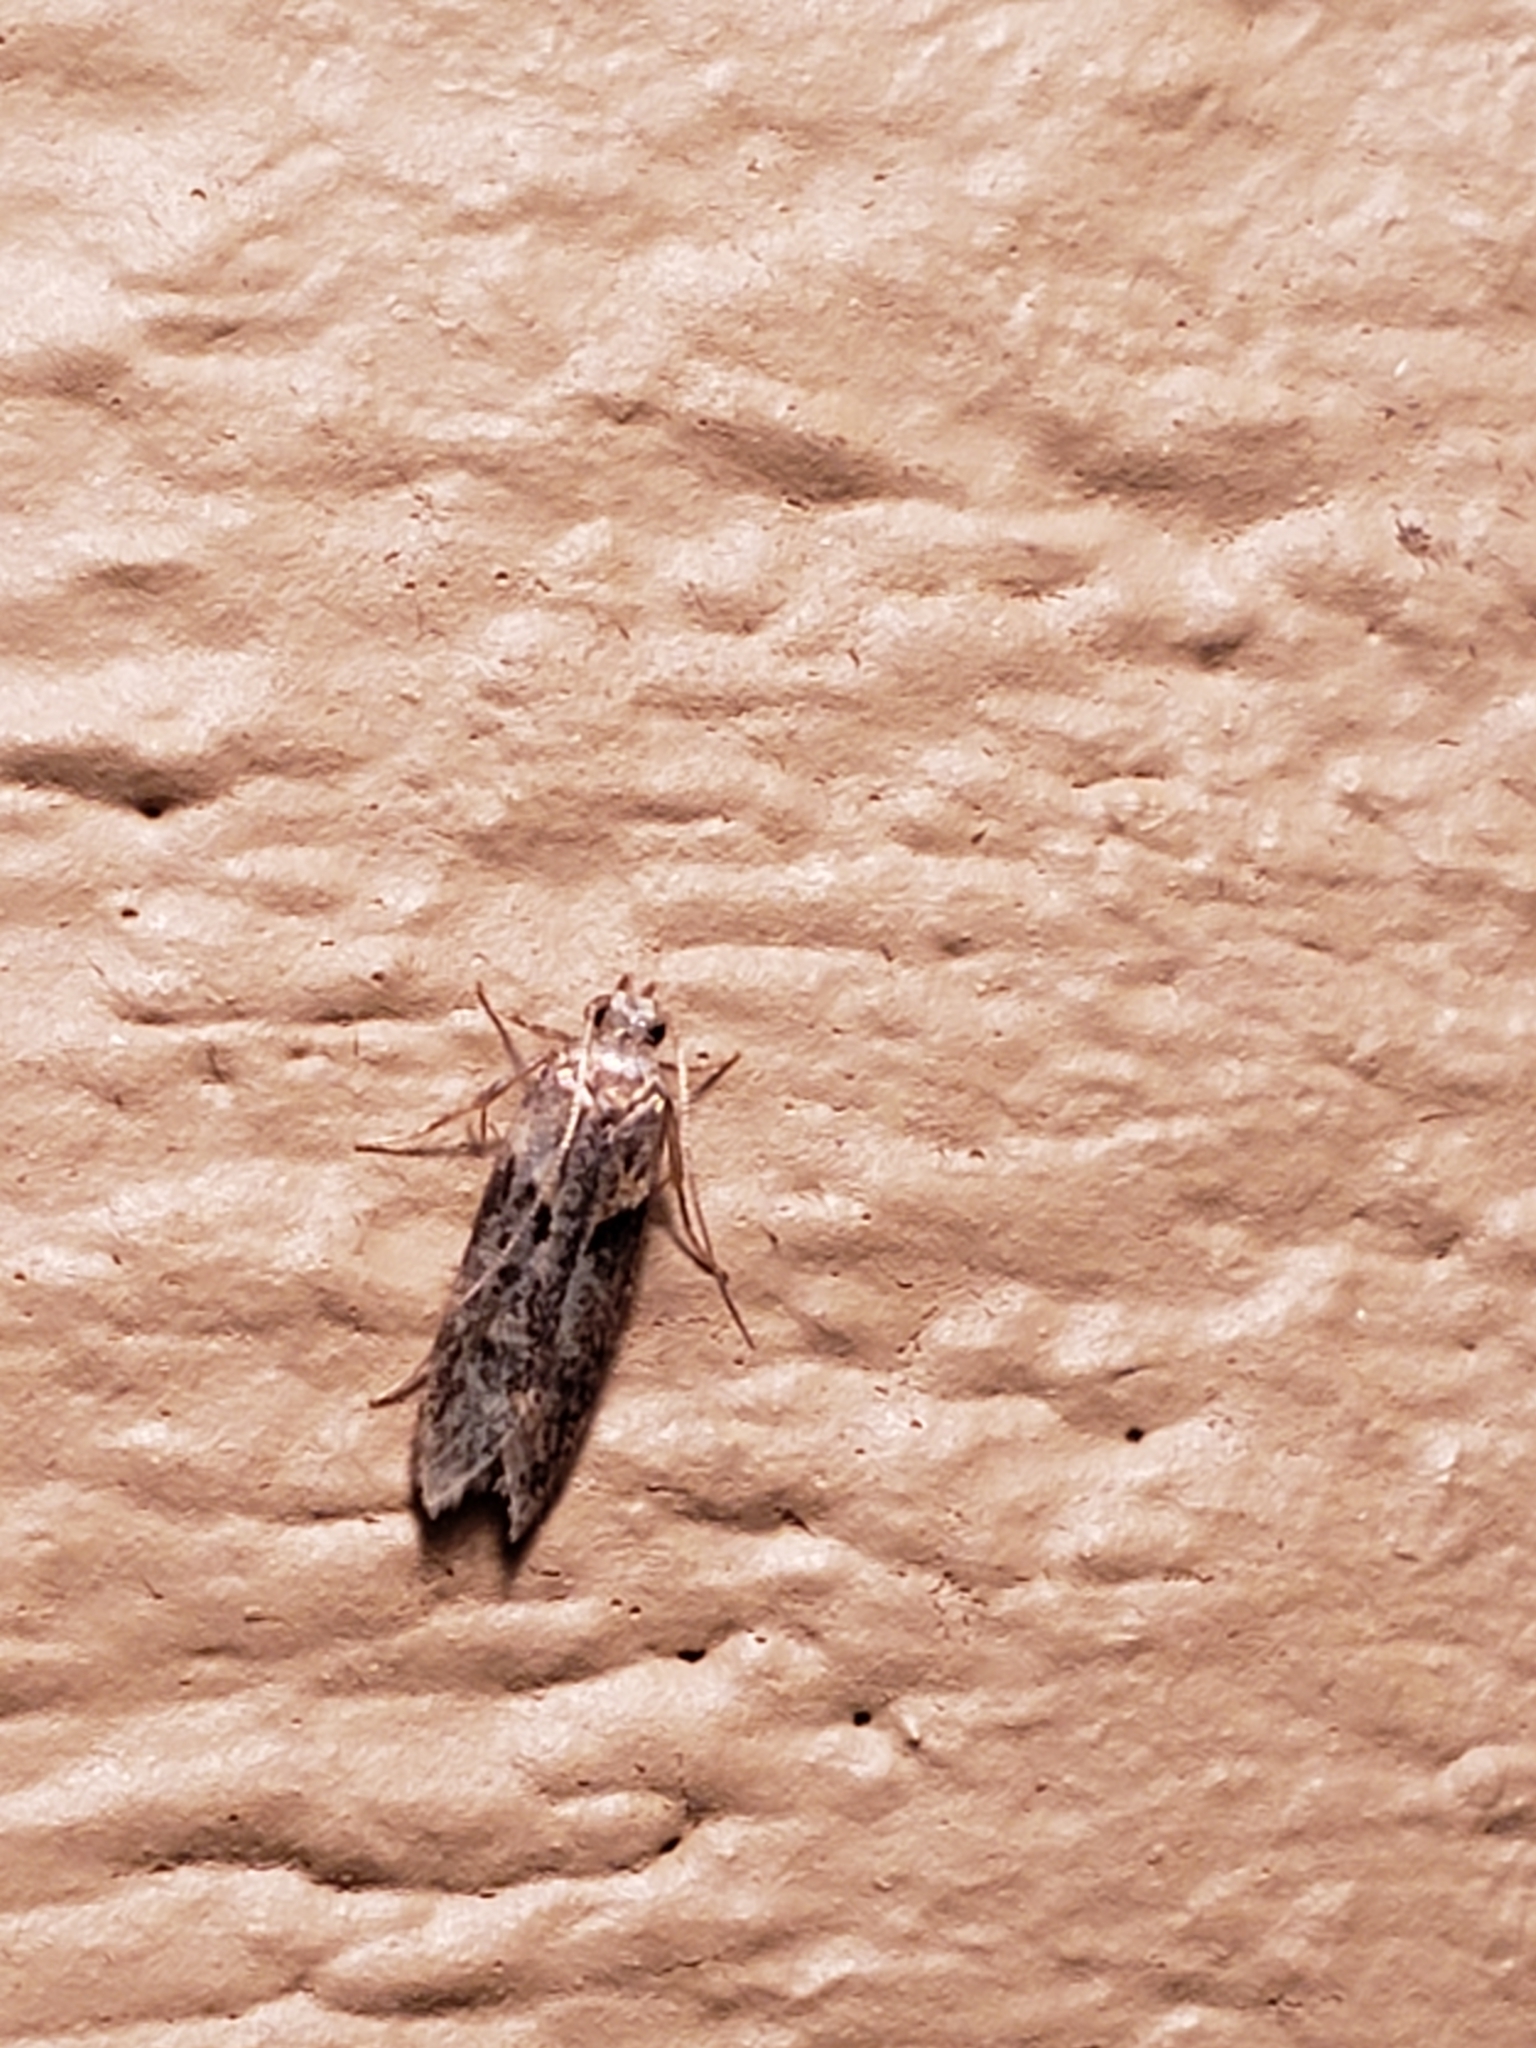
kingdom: Animalia
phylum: Arthropoda
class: Insecta
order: Lepidoptera
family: Gelechiidae
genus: Chionodes
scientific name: Chionodes mediofuscella
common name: Black-smudged chionodes moth
